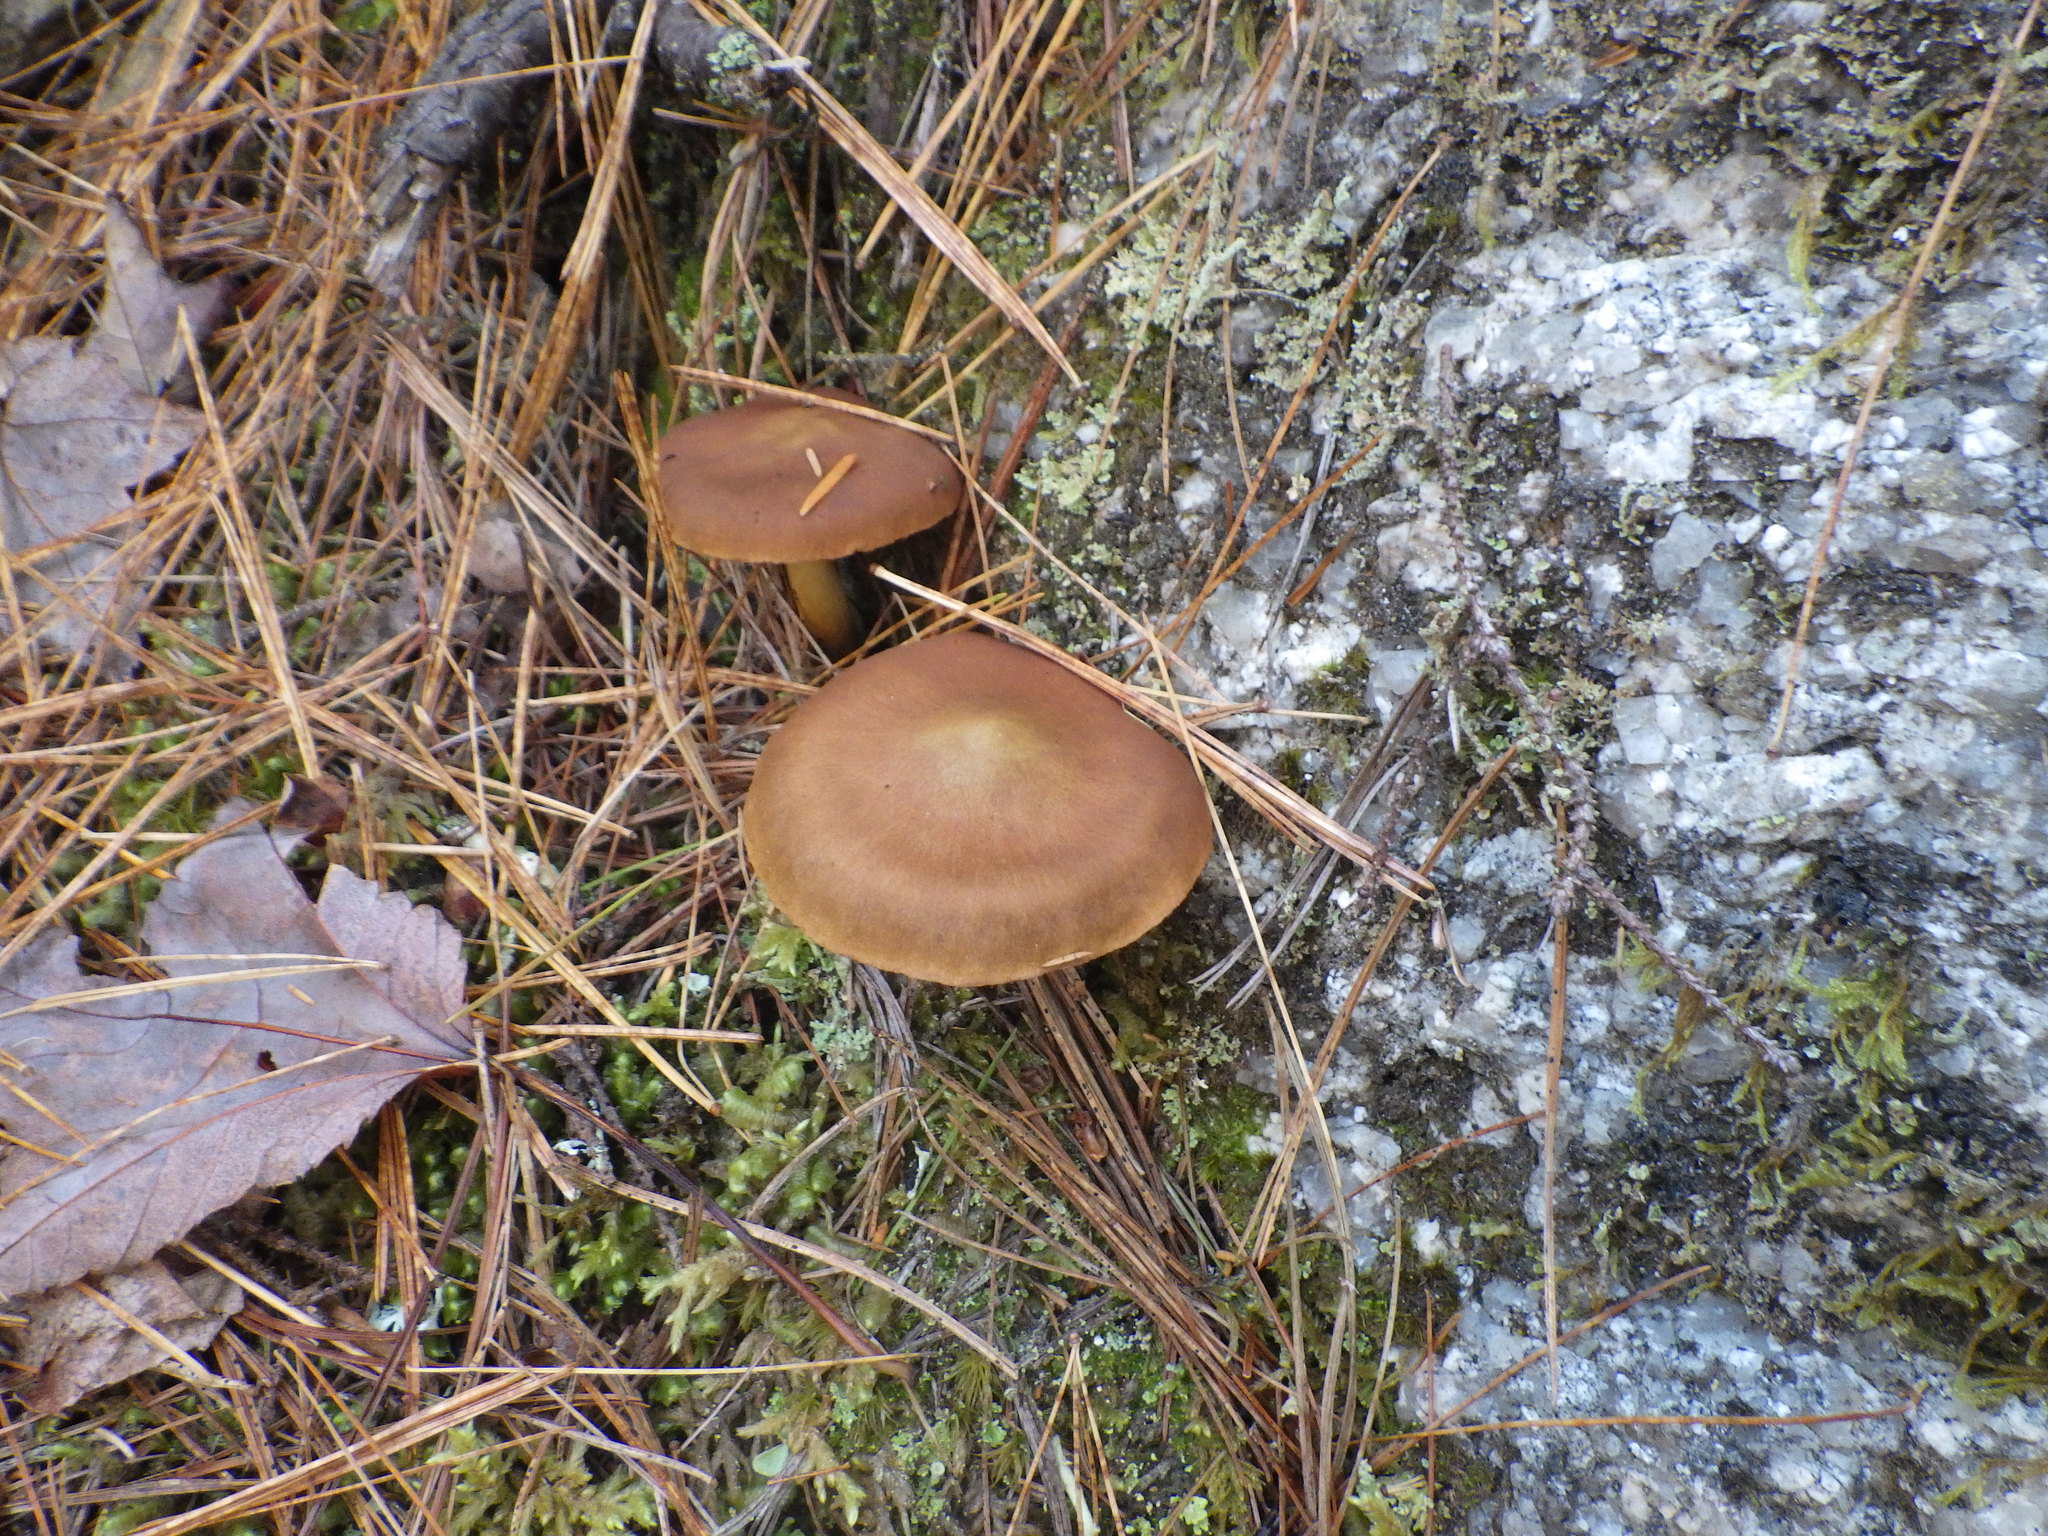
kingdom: Fungi
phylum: Basidiomycota
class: Agaricomycetes
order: Agaricales
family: Cortinariaceae
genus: Cortinarius
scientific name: Cortinarius semisanguineus
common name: Surprise webcap
